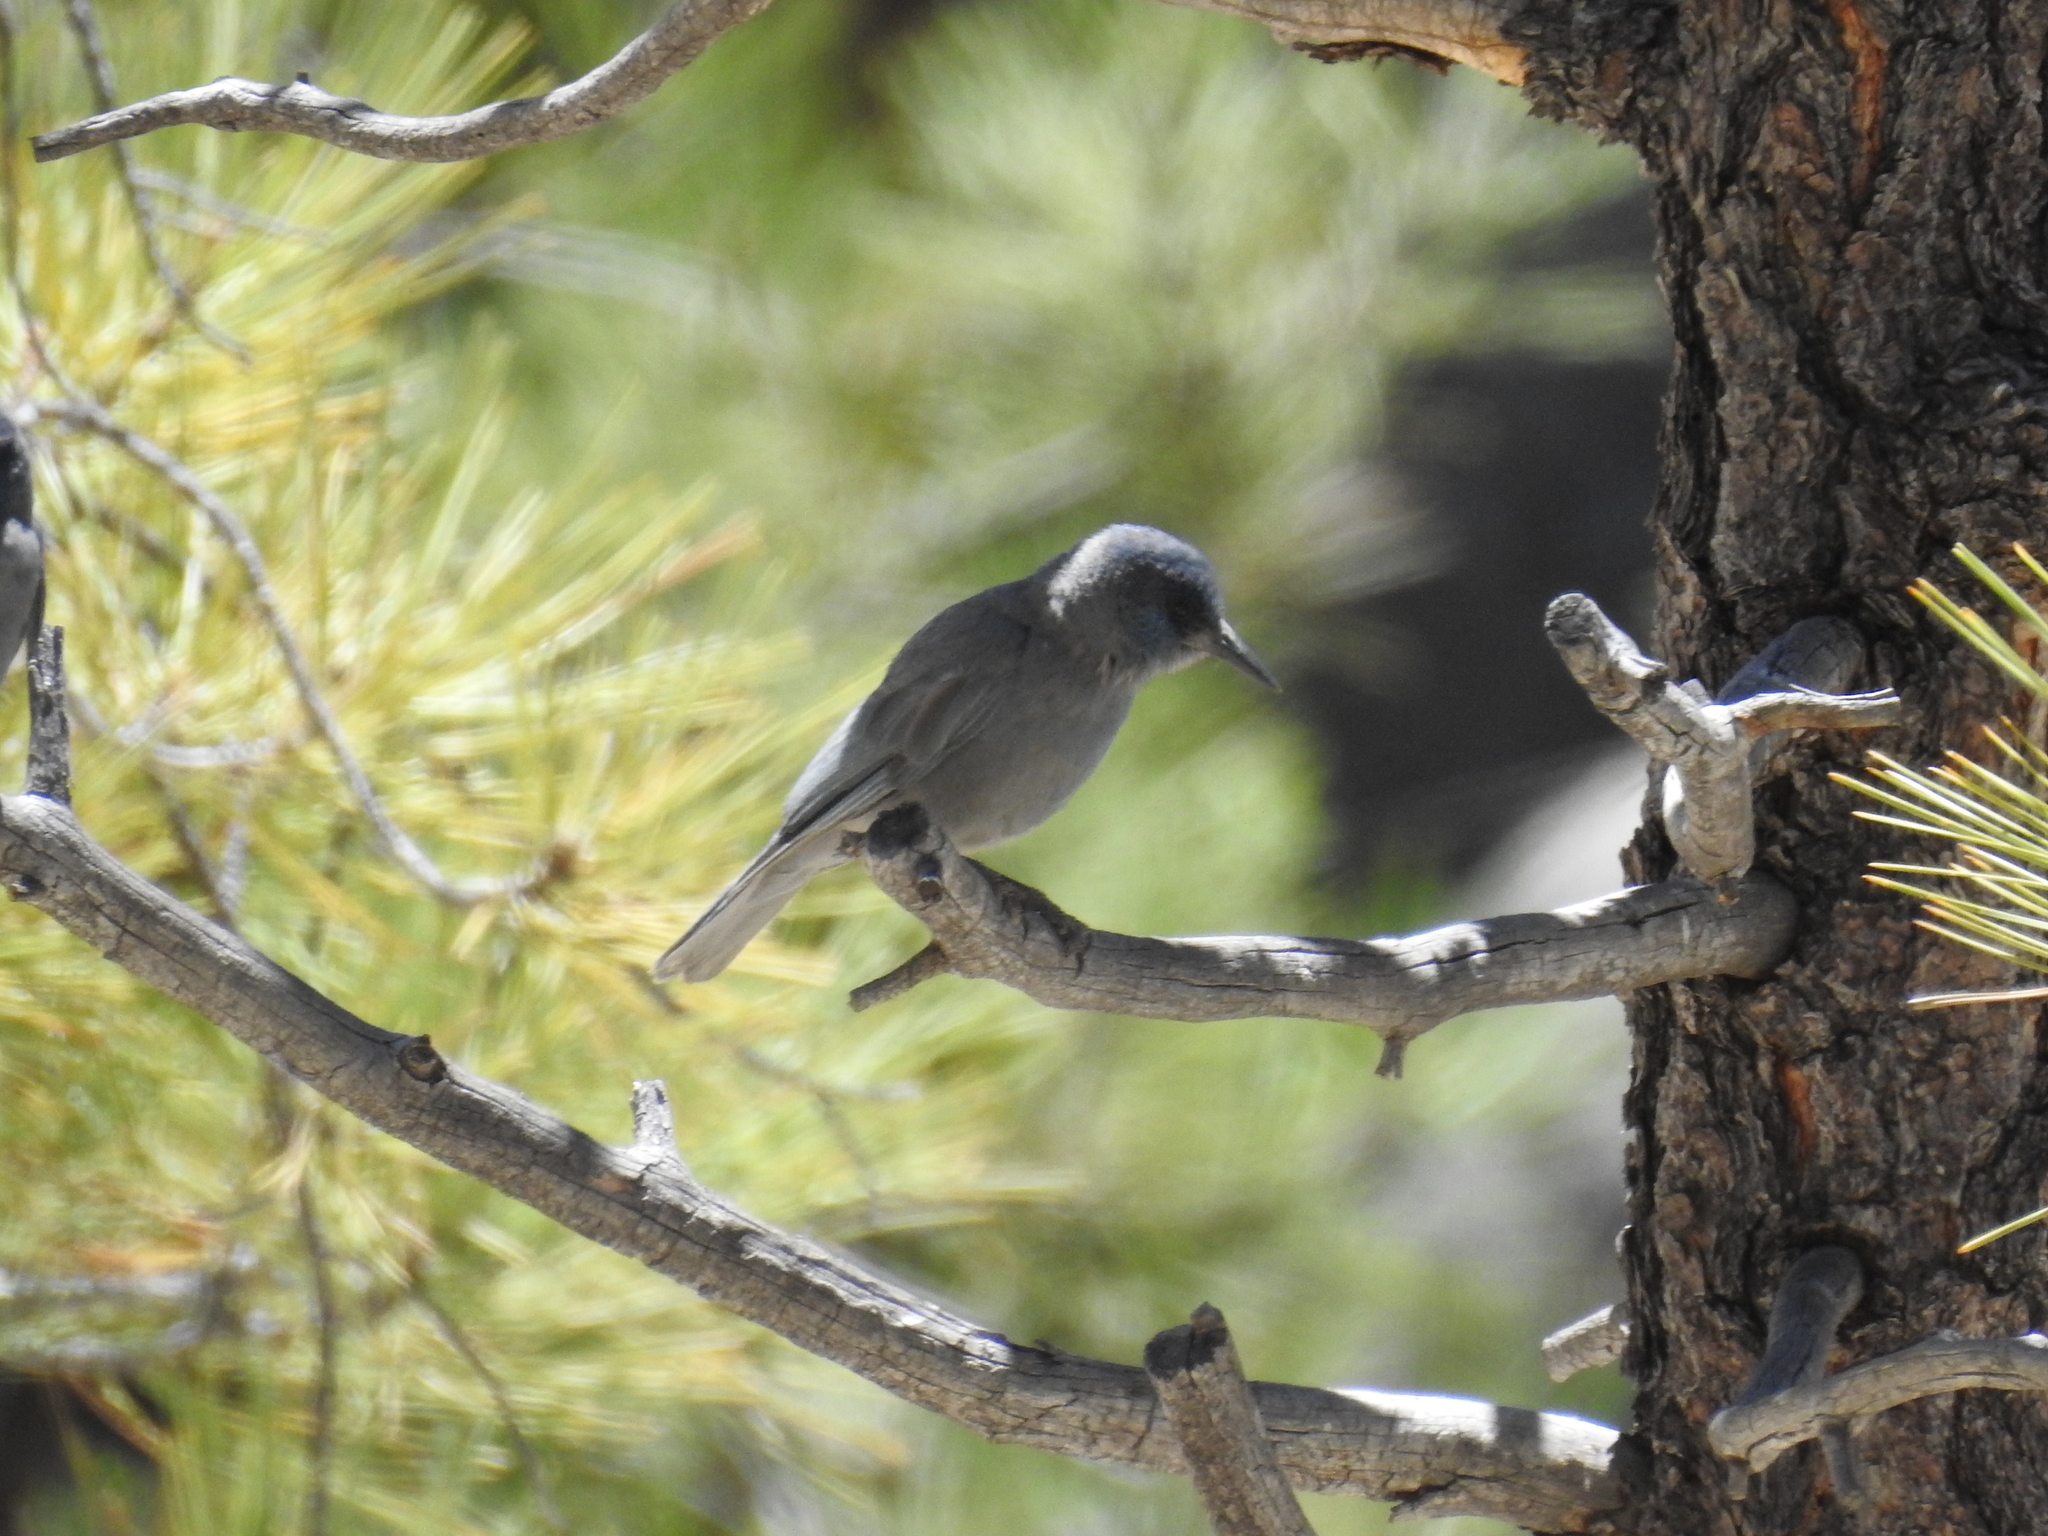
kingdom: Animalia
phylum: Chordata
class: Aves
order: Passeriformes
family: Corvidae
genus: Gymnorhinus
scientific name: Gymnorhinus cyanocephalus
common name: Pinyon jay
